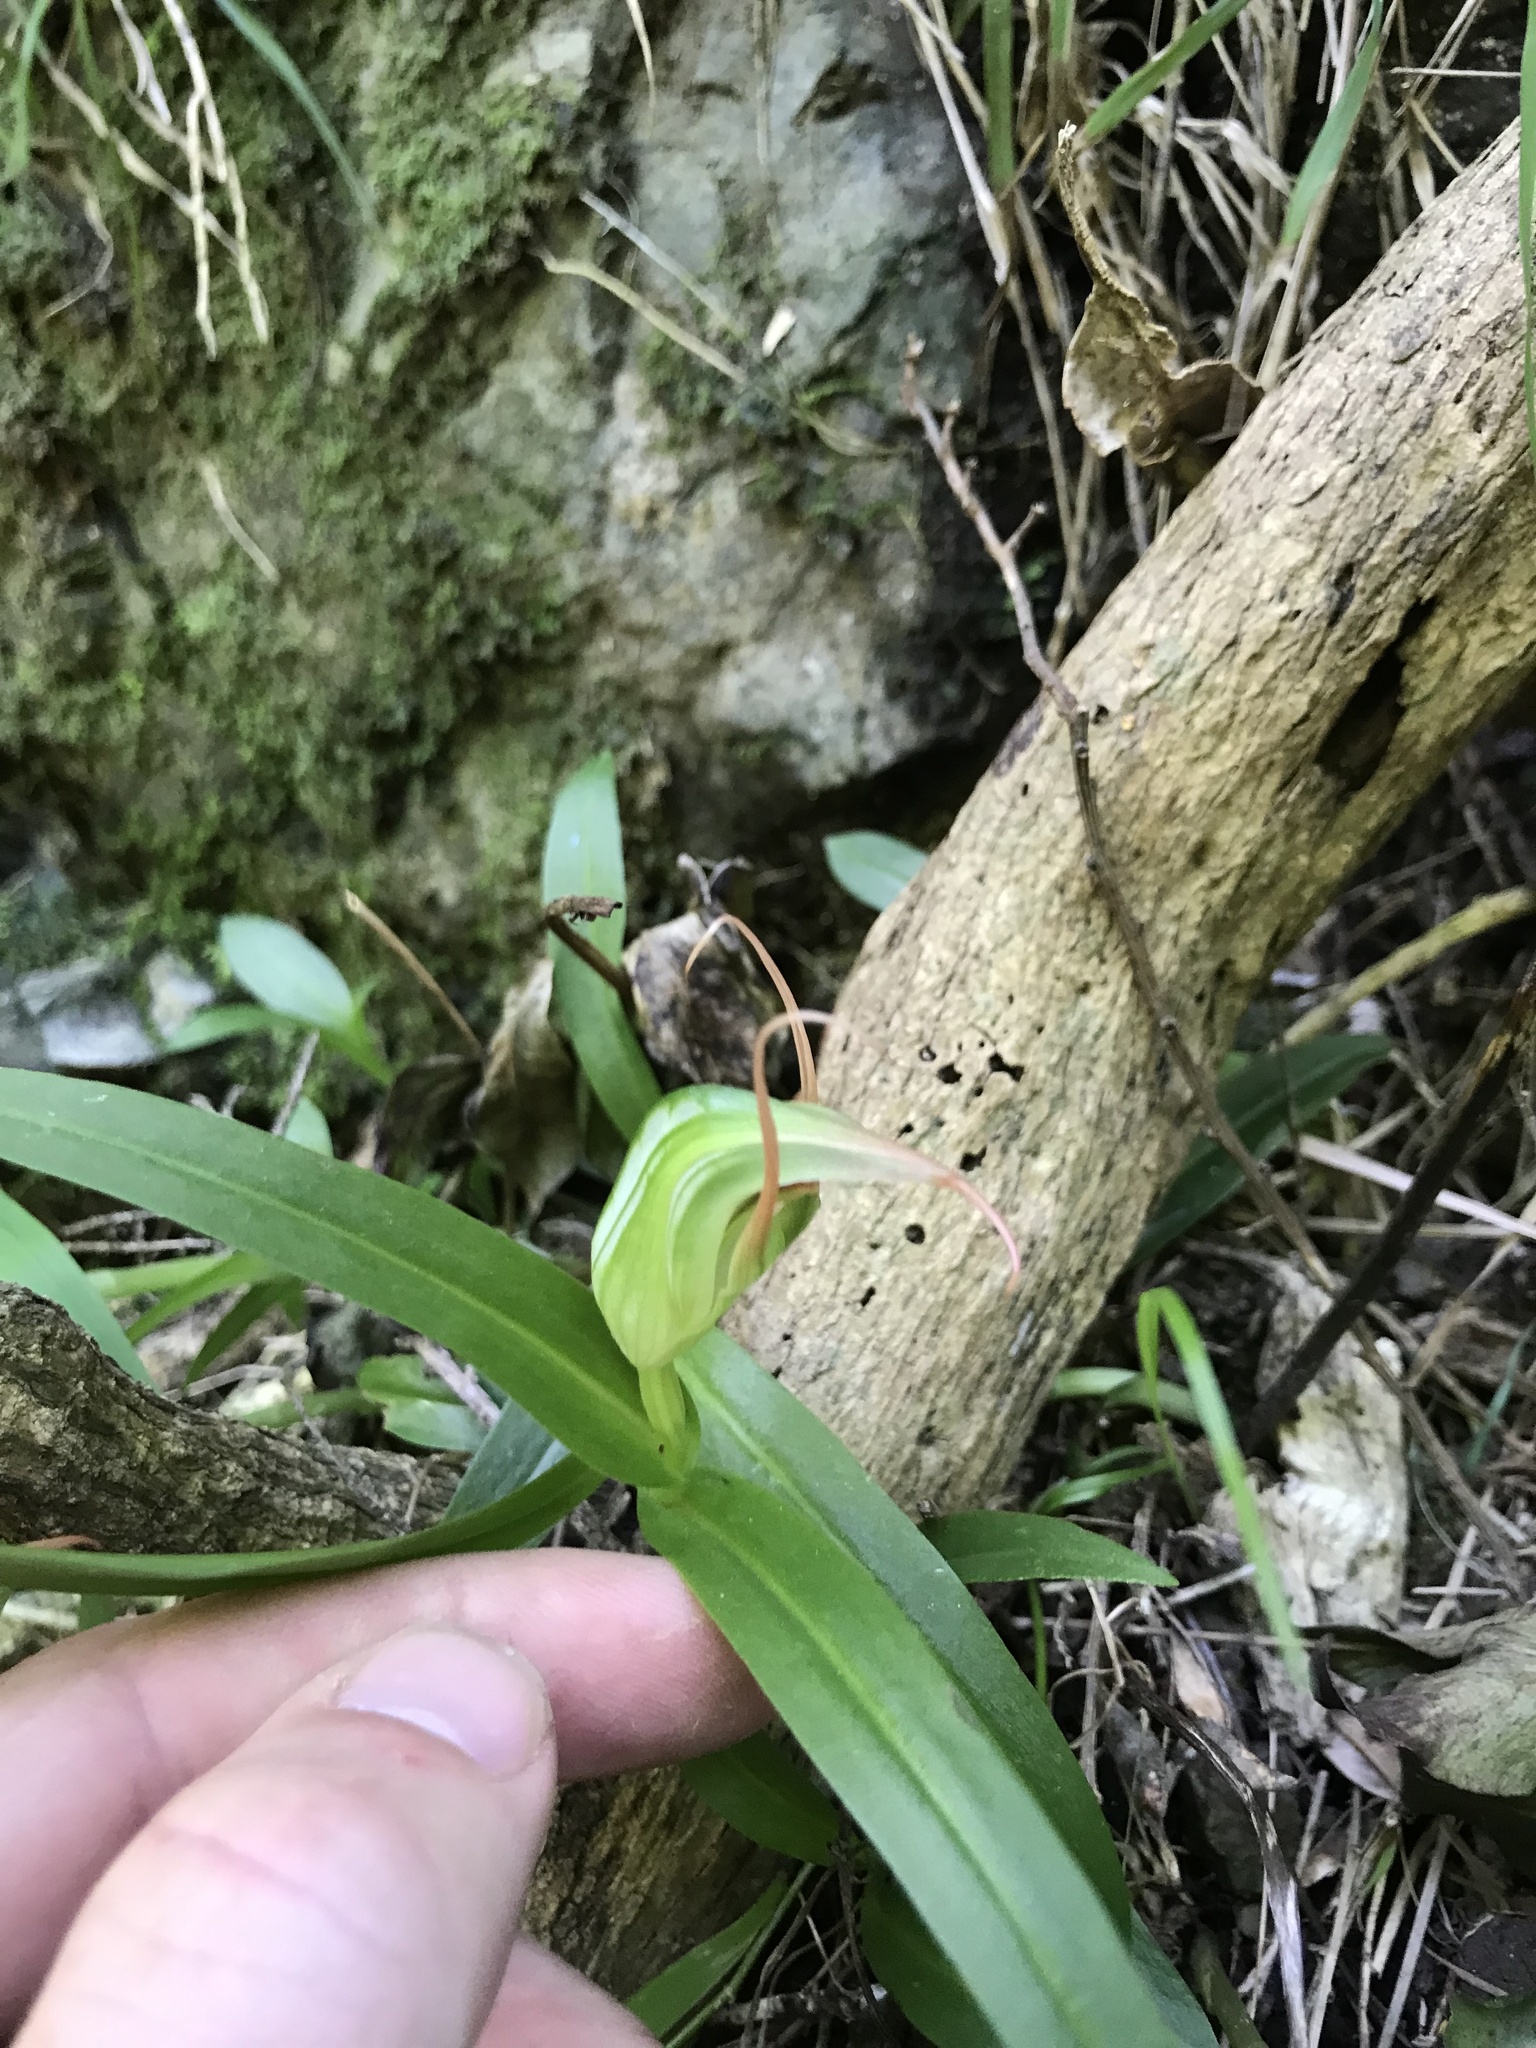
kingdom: Plantae
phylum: Tracheophyta
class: Liliopsida
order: Asparagales
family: Orchidaceae
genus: Pterostylis
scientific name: Pterostylis banksii
